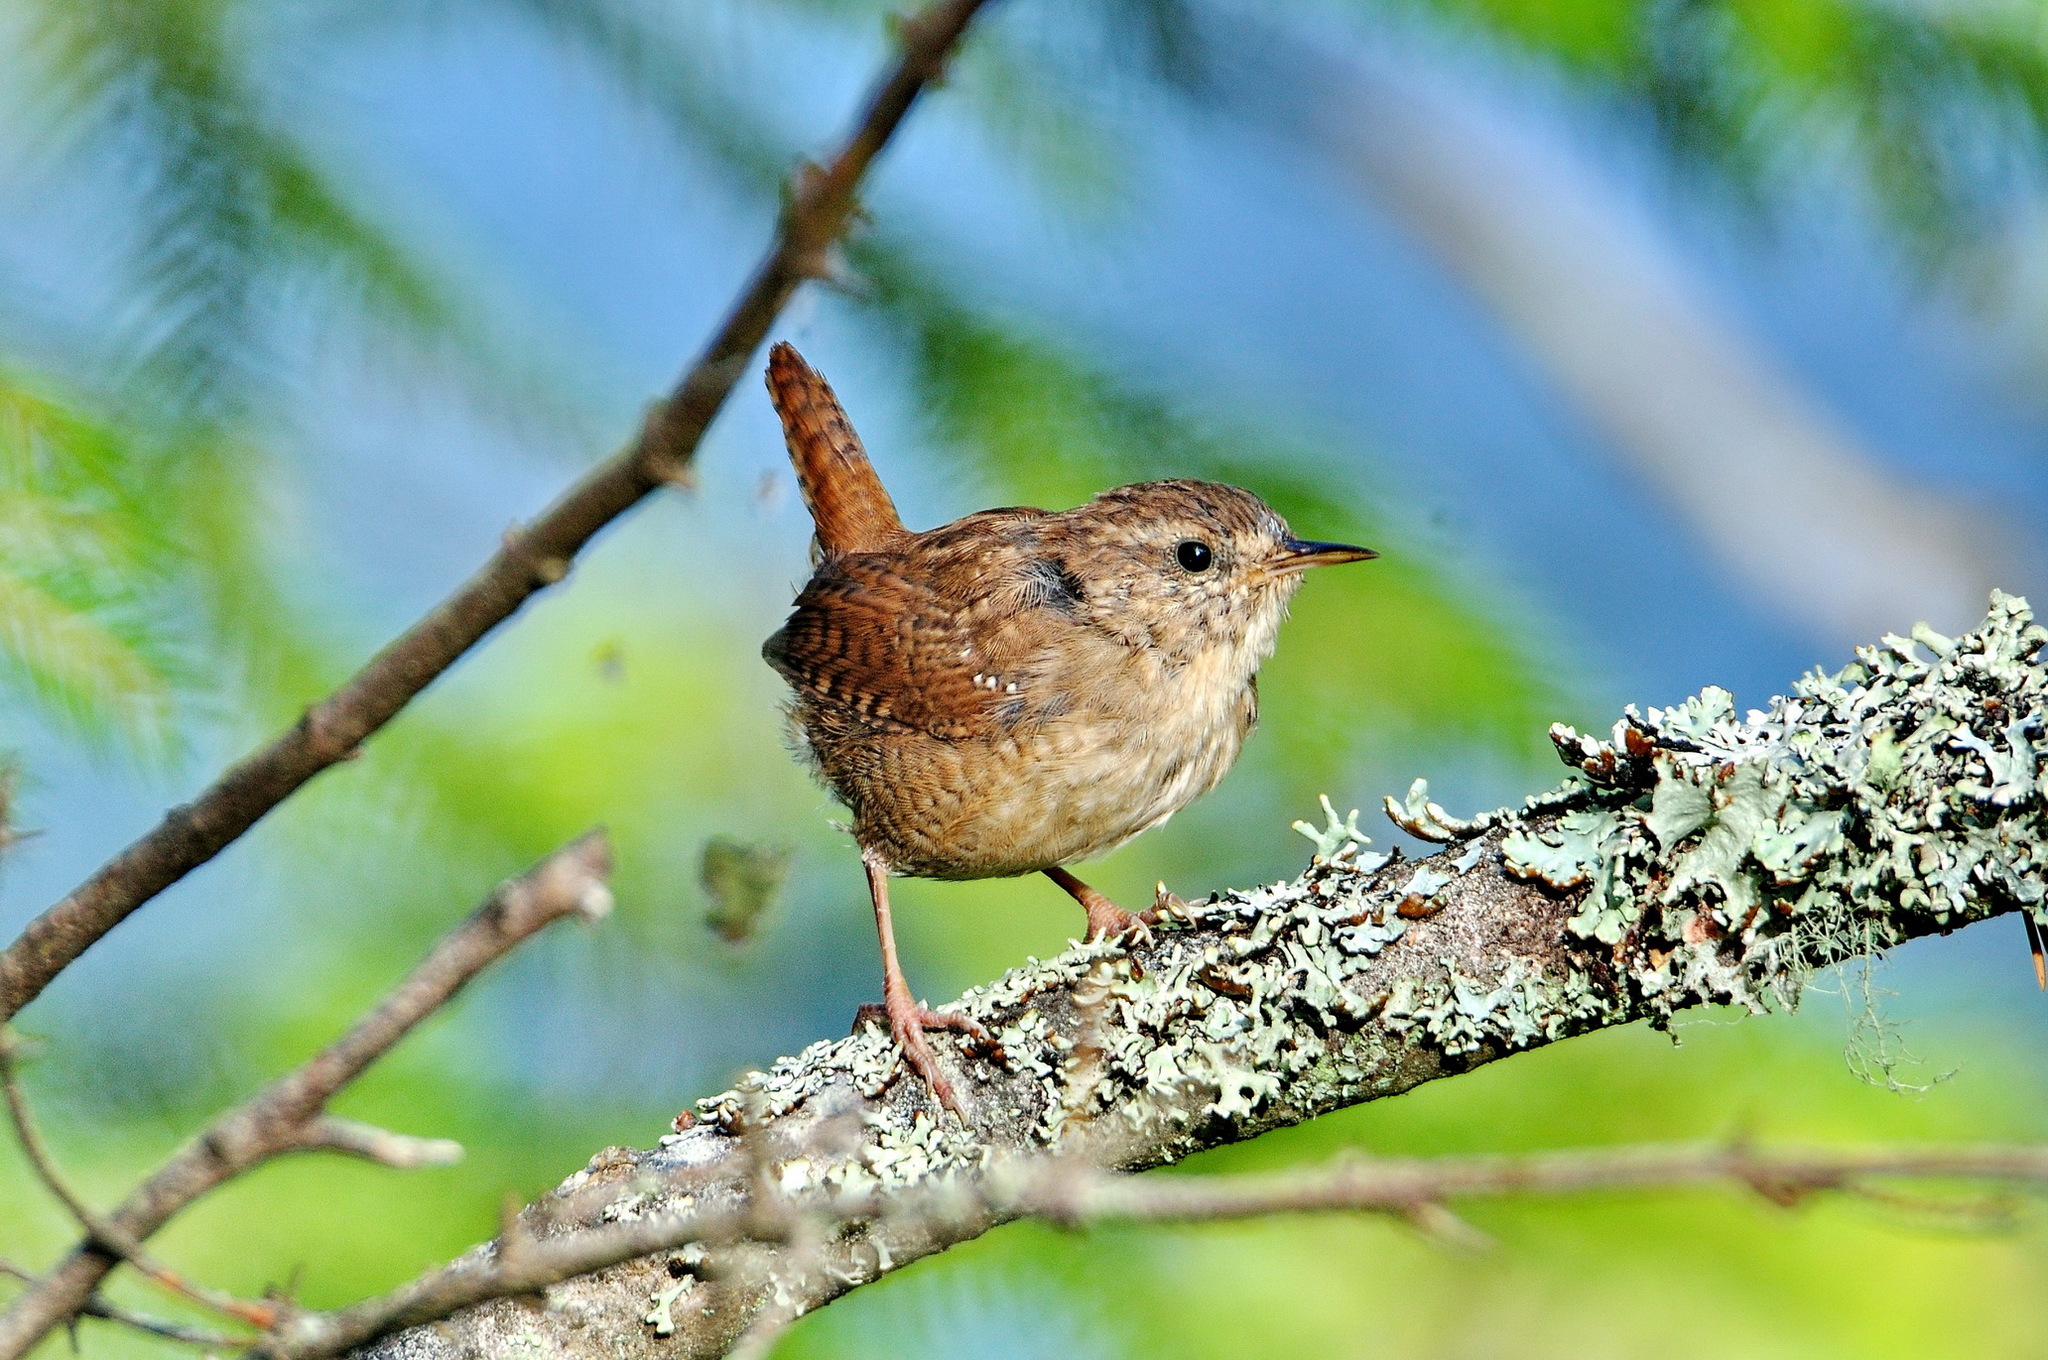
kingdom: Animalia
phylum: Chordata
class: Aves
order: Passeriformes
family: Troglodytidae
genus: Troglodytes
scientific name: Troglodytes troglodytes
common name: Eurasian wren
